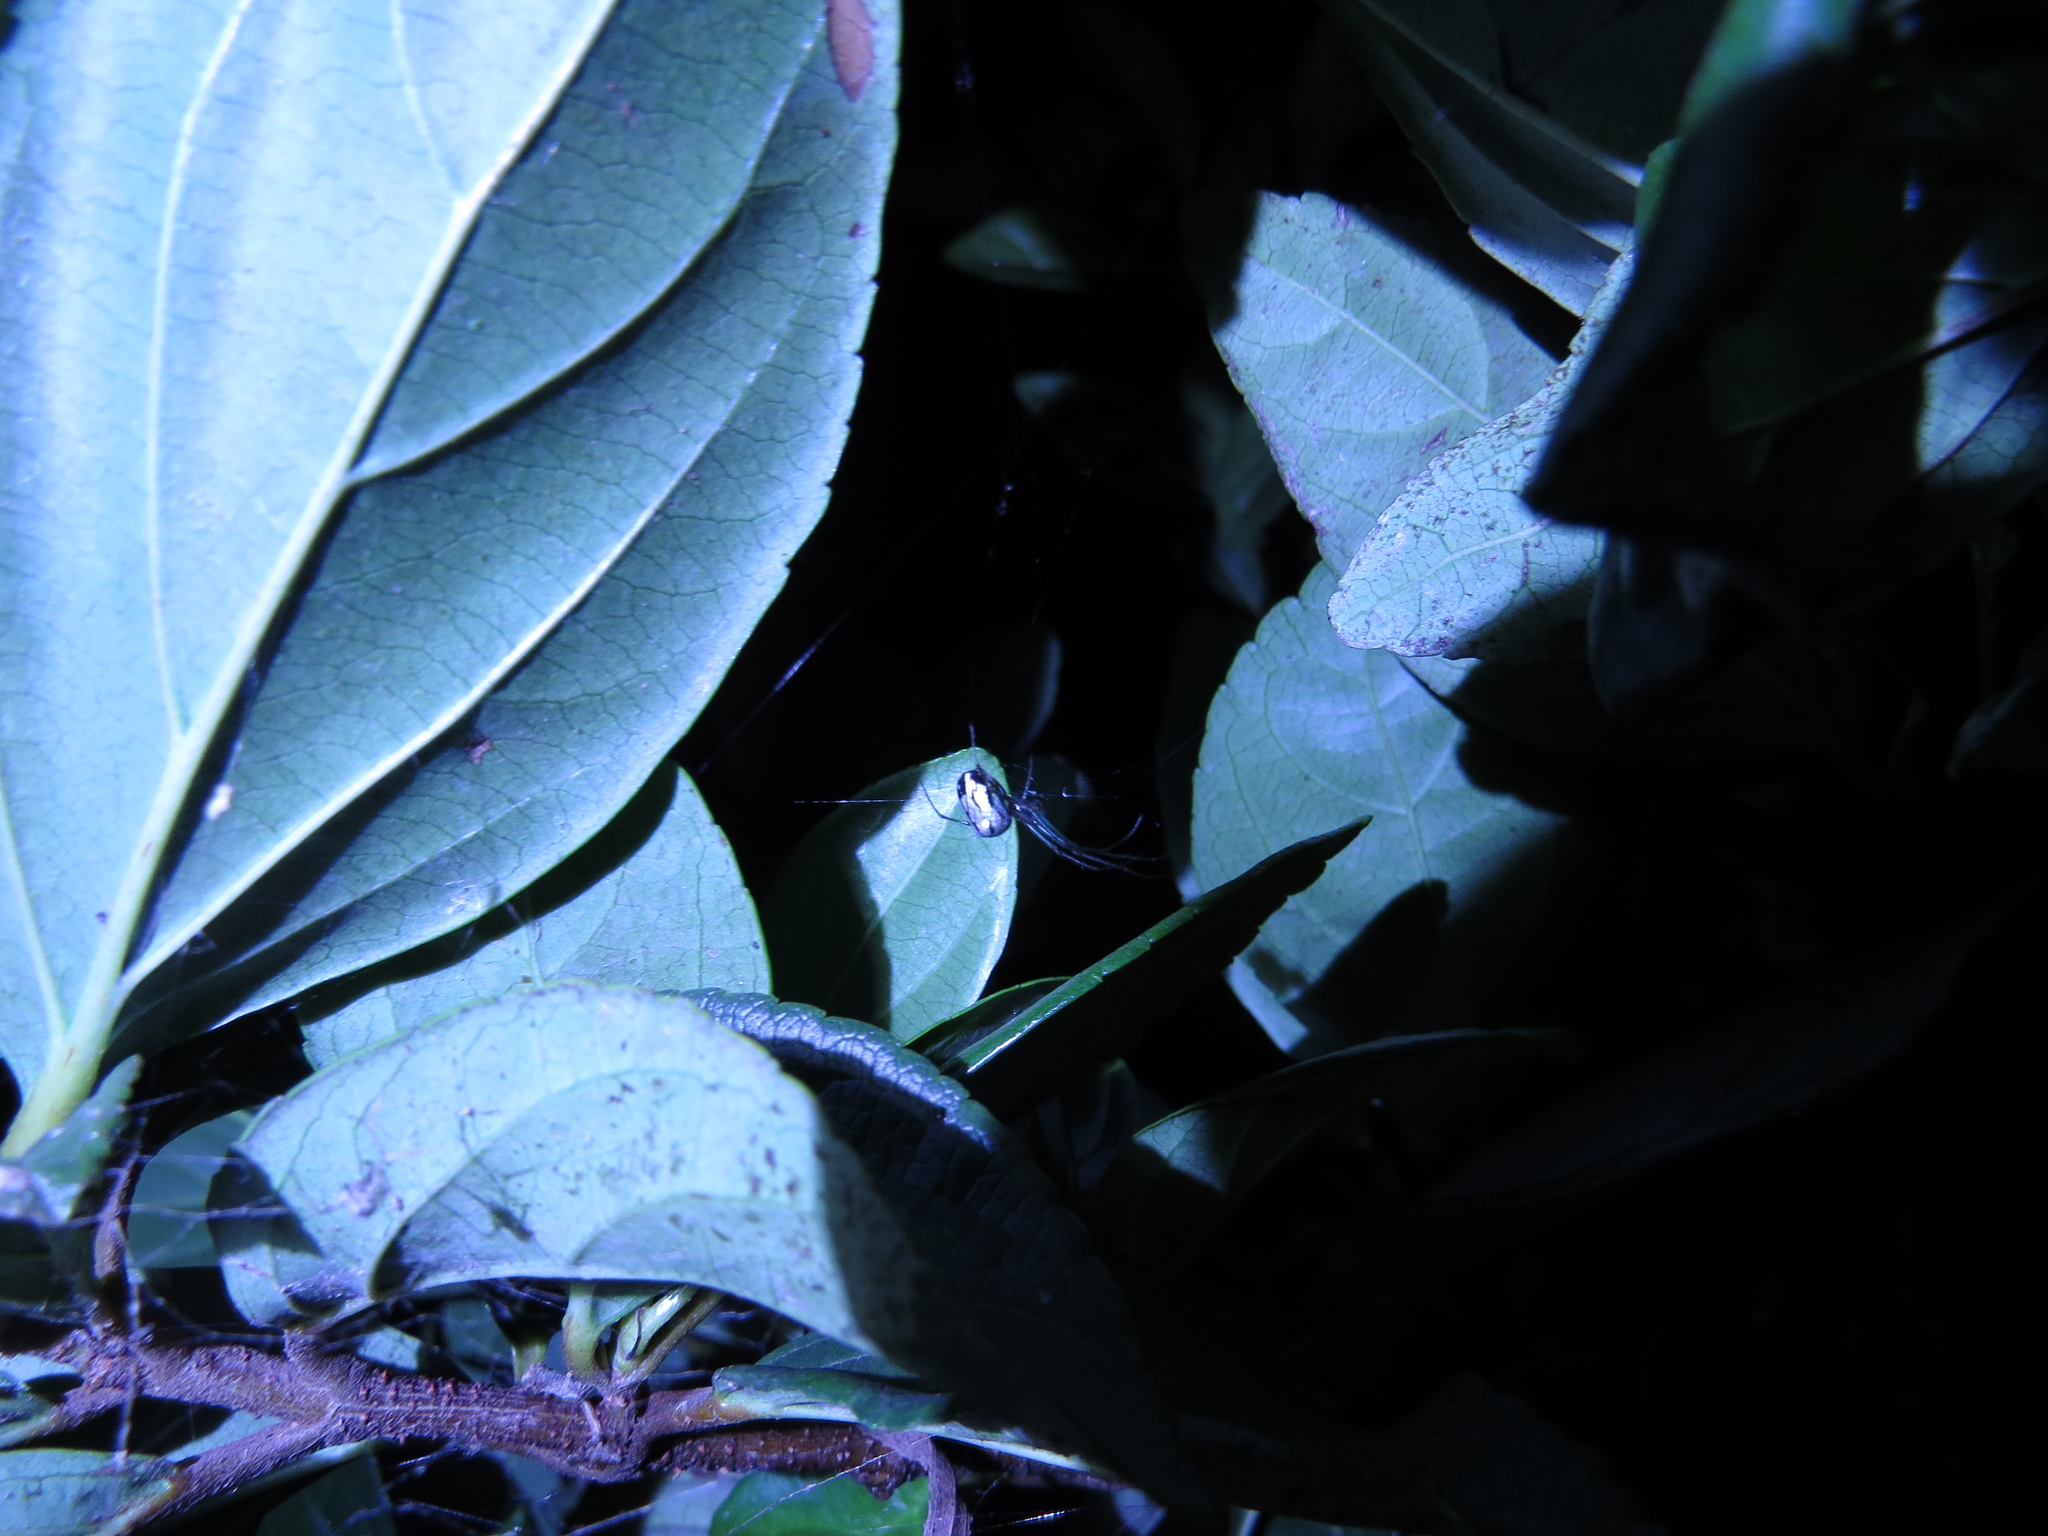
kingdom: Animalia
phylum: Arthropoda
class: Arachnida
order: Araneae
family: Tetragnathidae
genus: Leucauge
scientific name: Leucauge volupis
